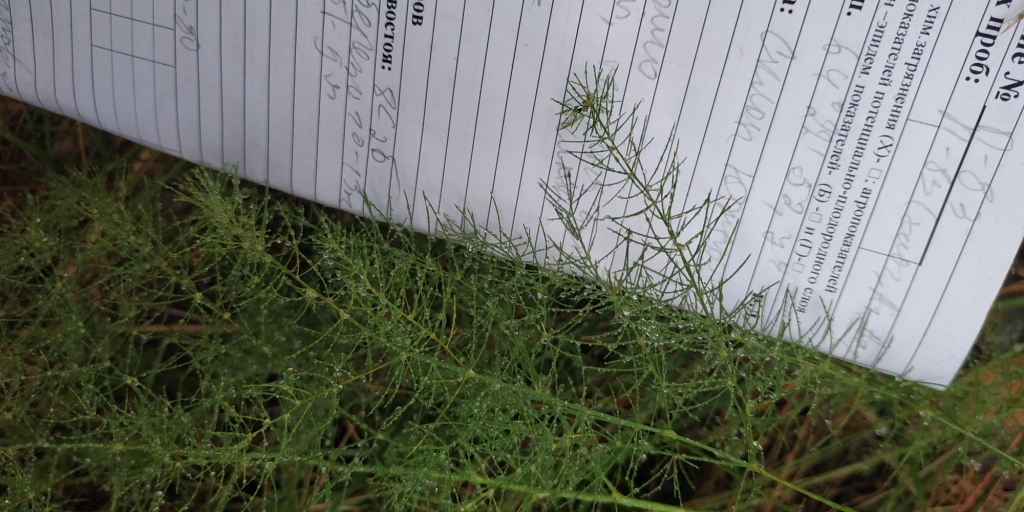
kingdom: Plantae
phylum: Tracheophyta
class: Liliopsida
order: Asparagales
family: Asparagaceae
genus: Asparagus
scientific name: Asparagus officinalis
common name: Garden asparagus
